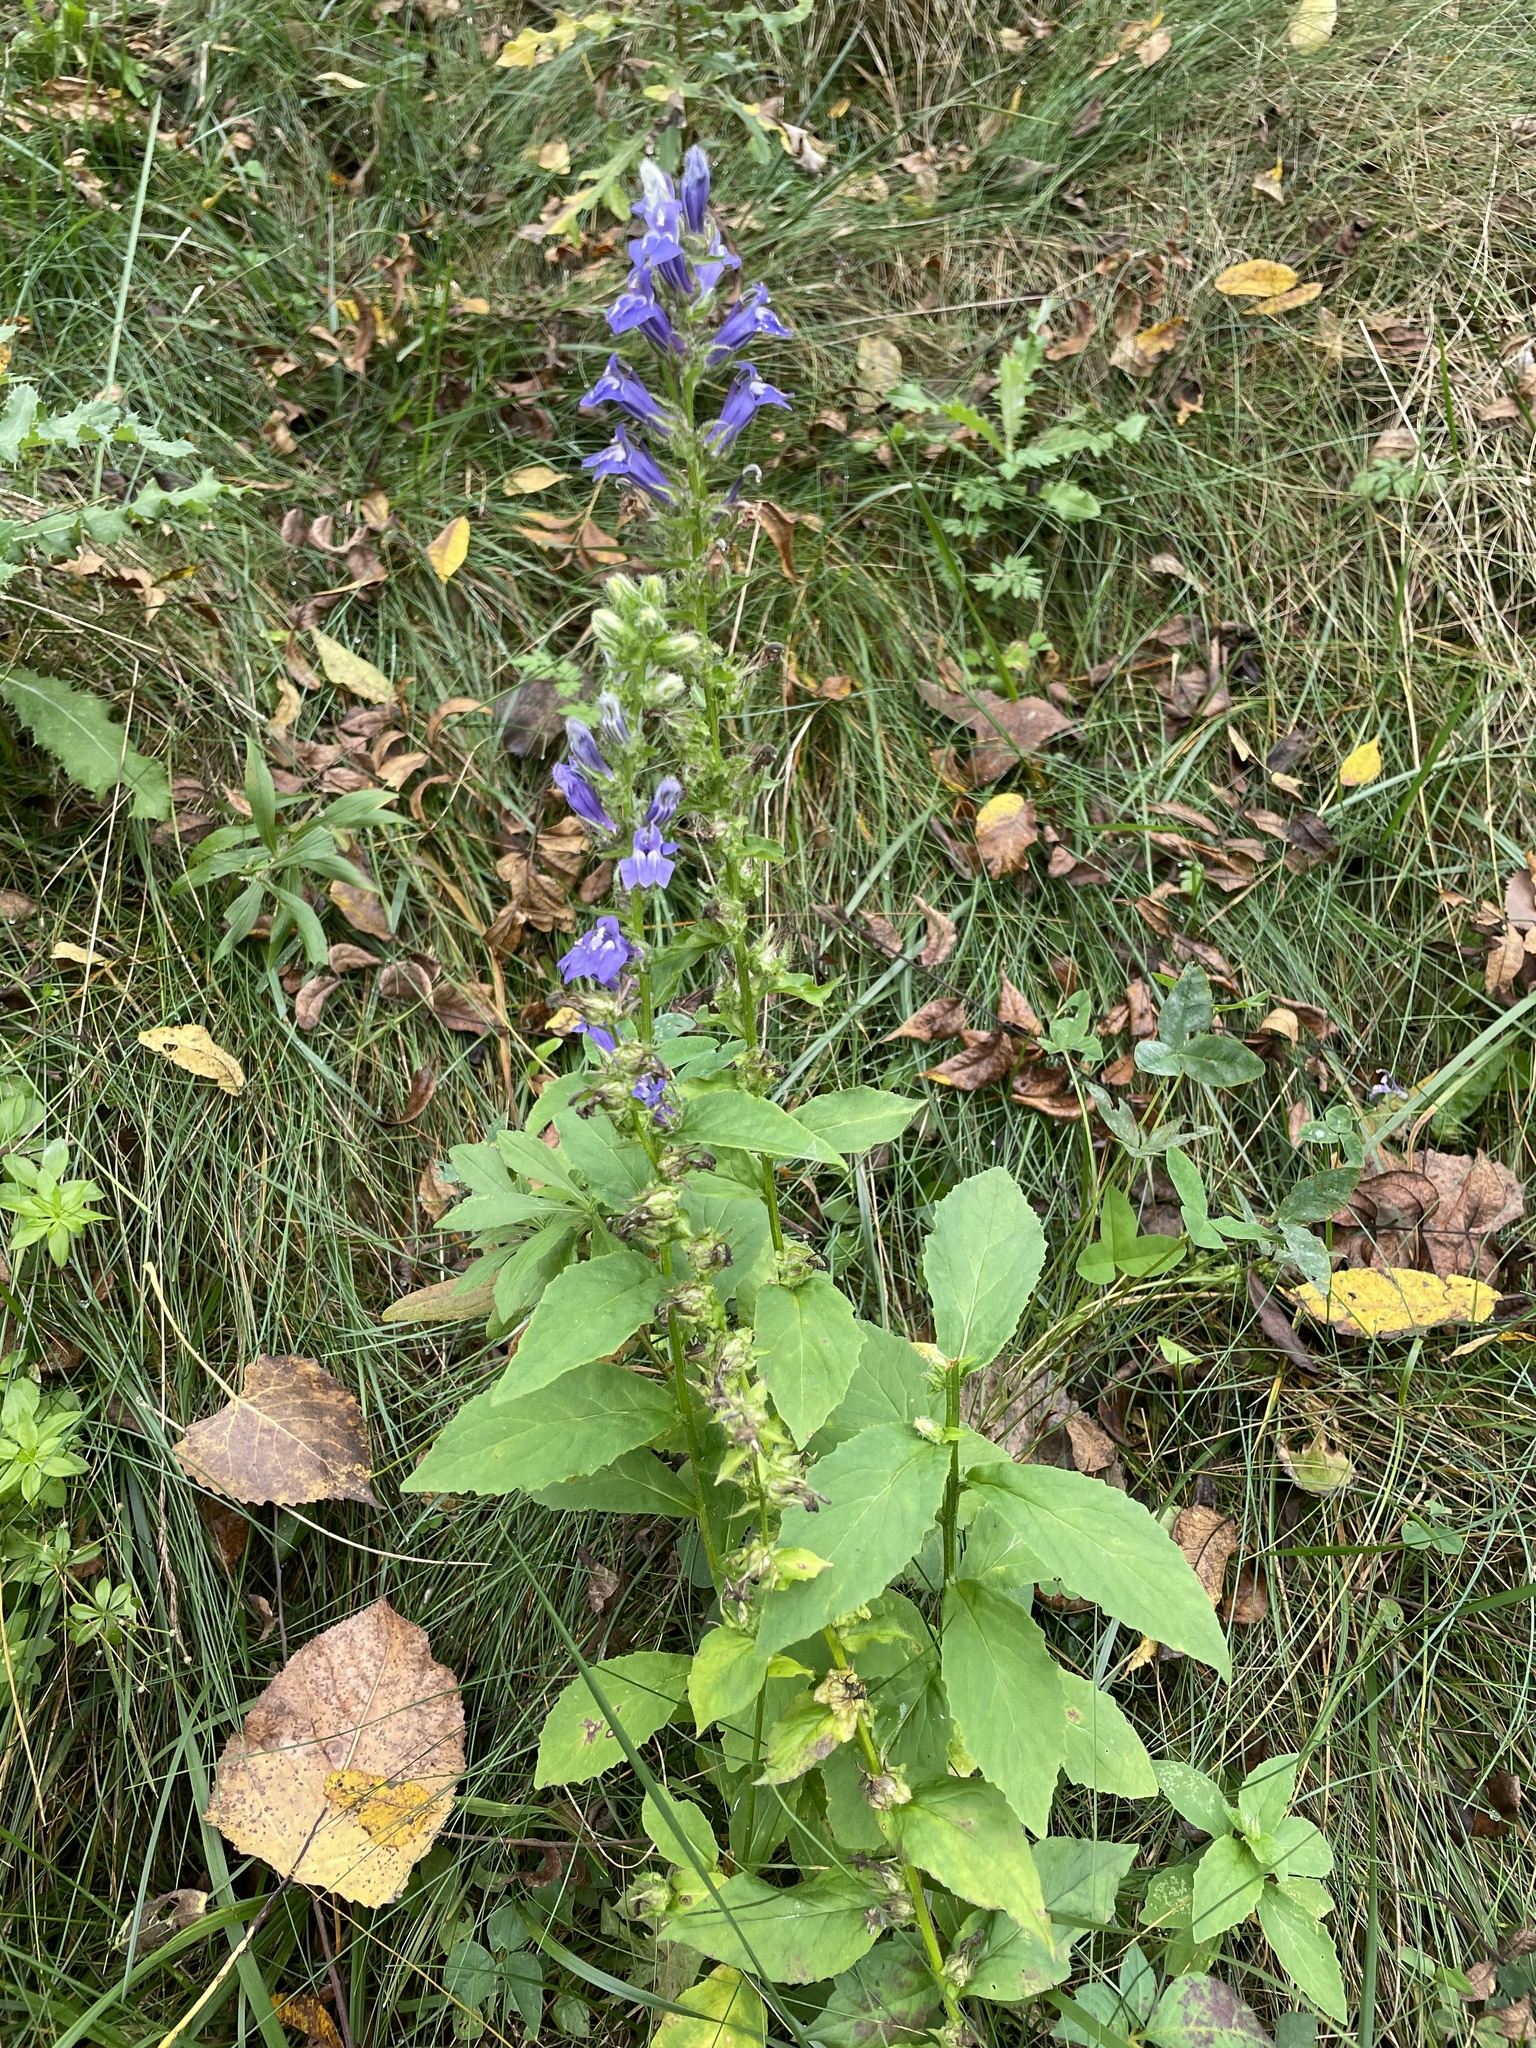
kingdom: Plantae
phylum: Tracheophyta
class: Magnoliopsida
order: Asterales
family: Campanulaceae
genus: Lobelia
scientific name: Lobelia siphilitica
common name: Great lobelia
